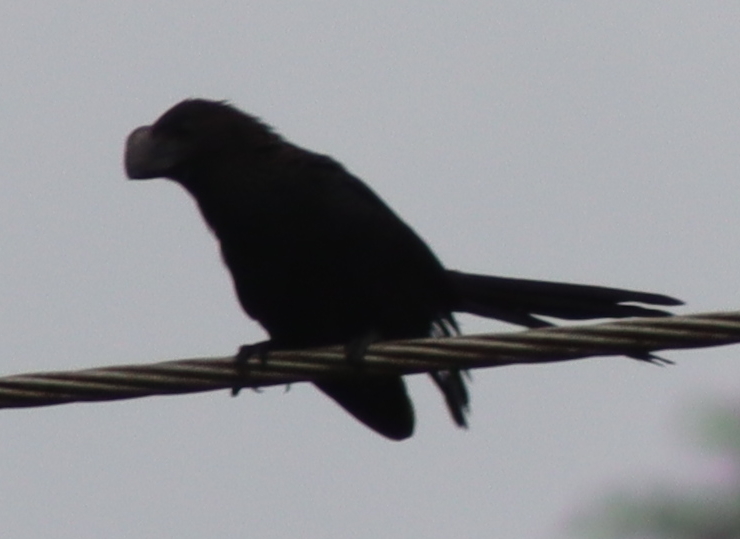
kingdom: Animalia
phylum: Chordata
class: Aves
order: Cuculiformes
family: Cuculidae
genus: Crotophaga
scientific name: Crotophaga ani
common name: Smooth-billed ani
